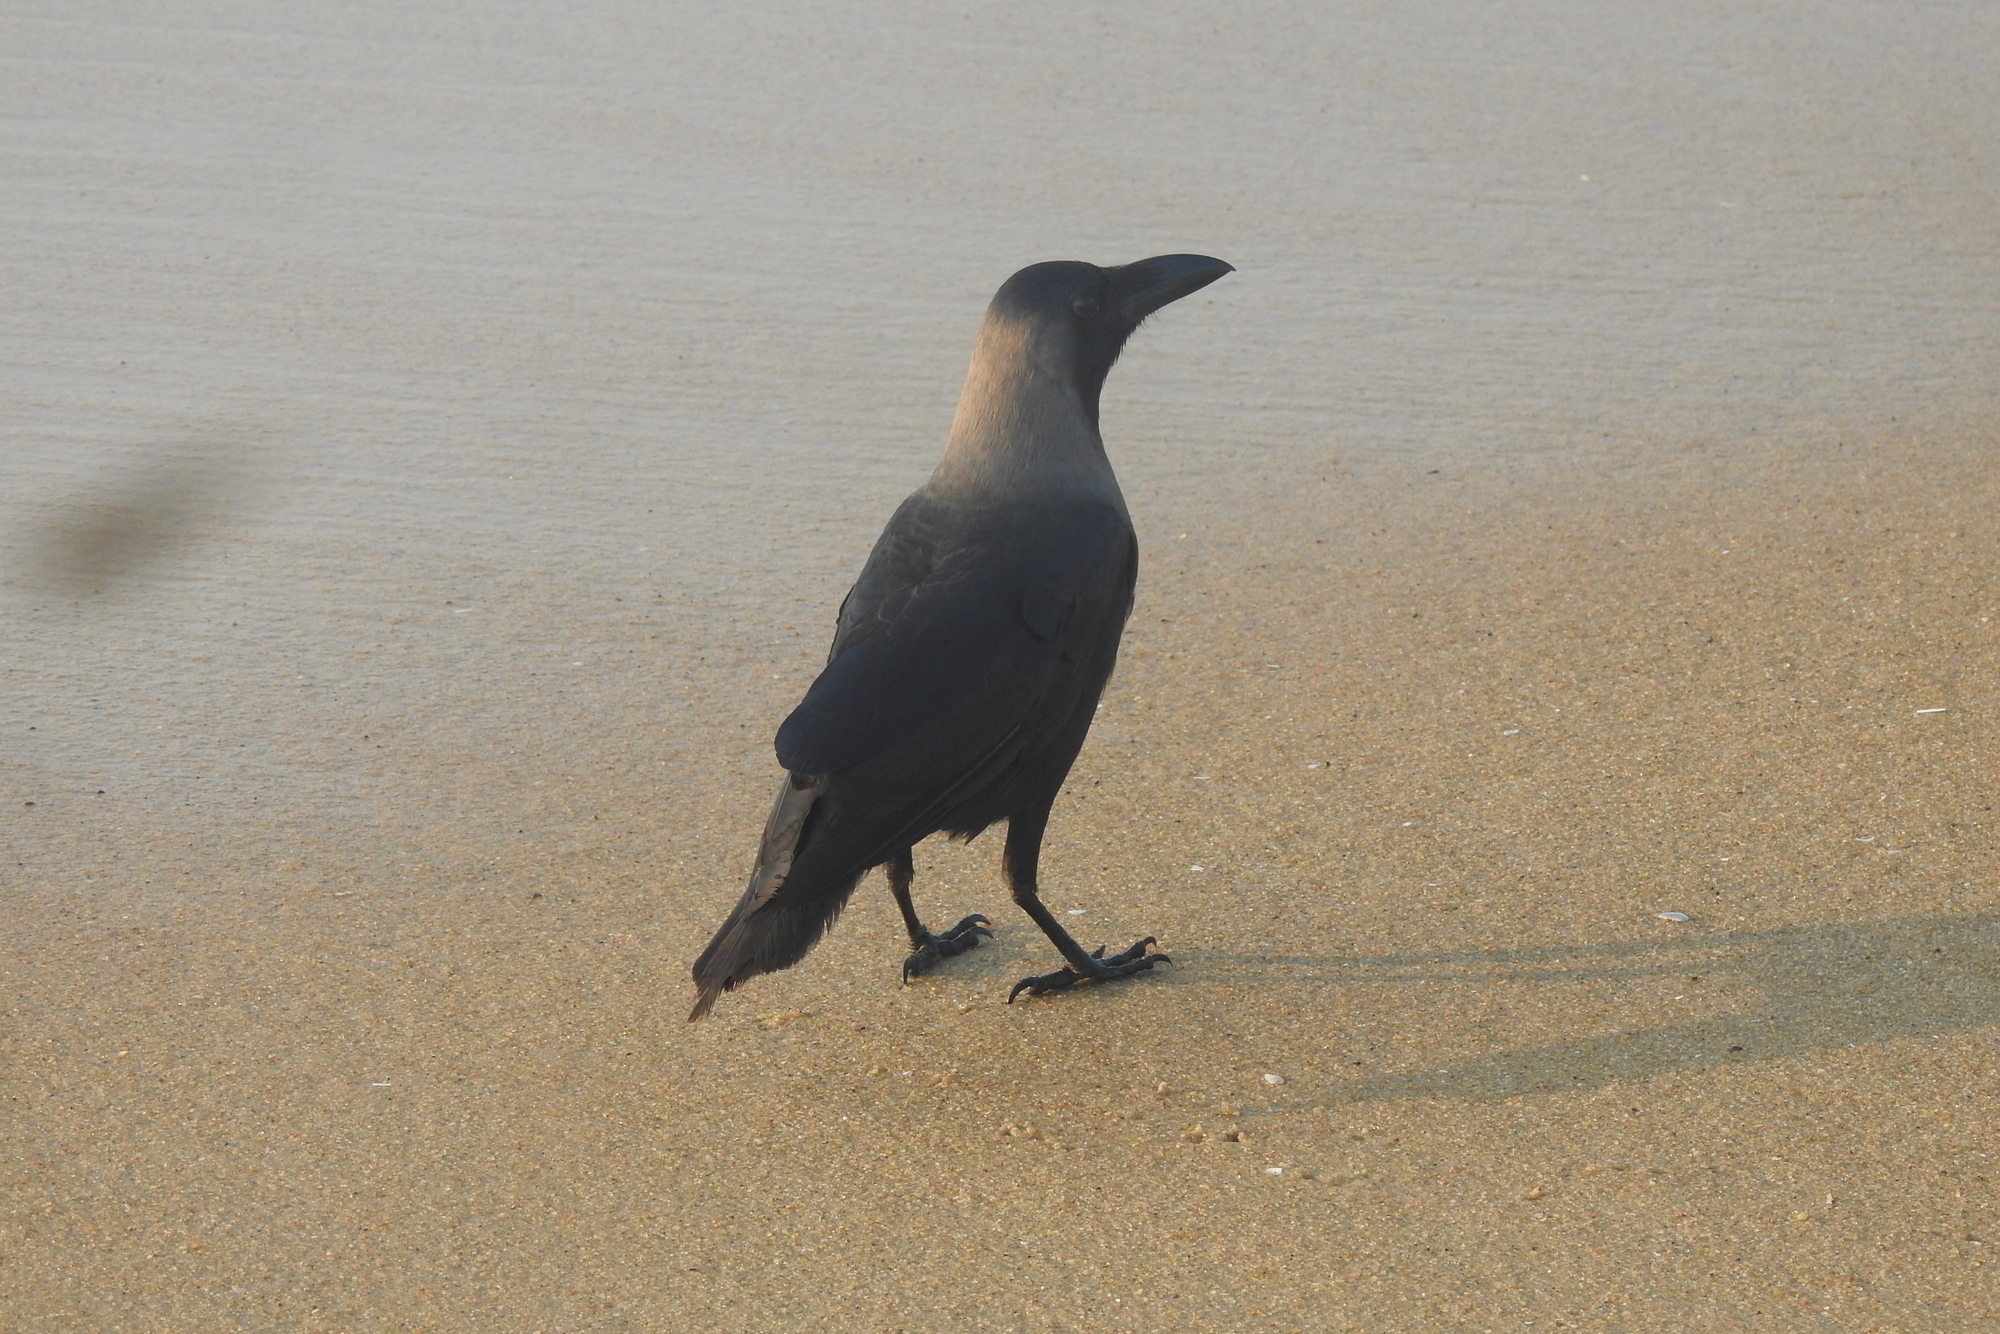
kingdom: Animalia
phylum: Chordata
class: Aves
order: Passeriformes
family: Corvidae
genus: Corvus
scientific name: Corvus splendens
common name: House crow
